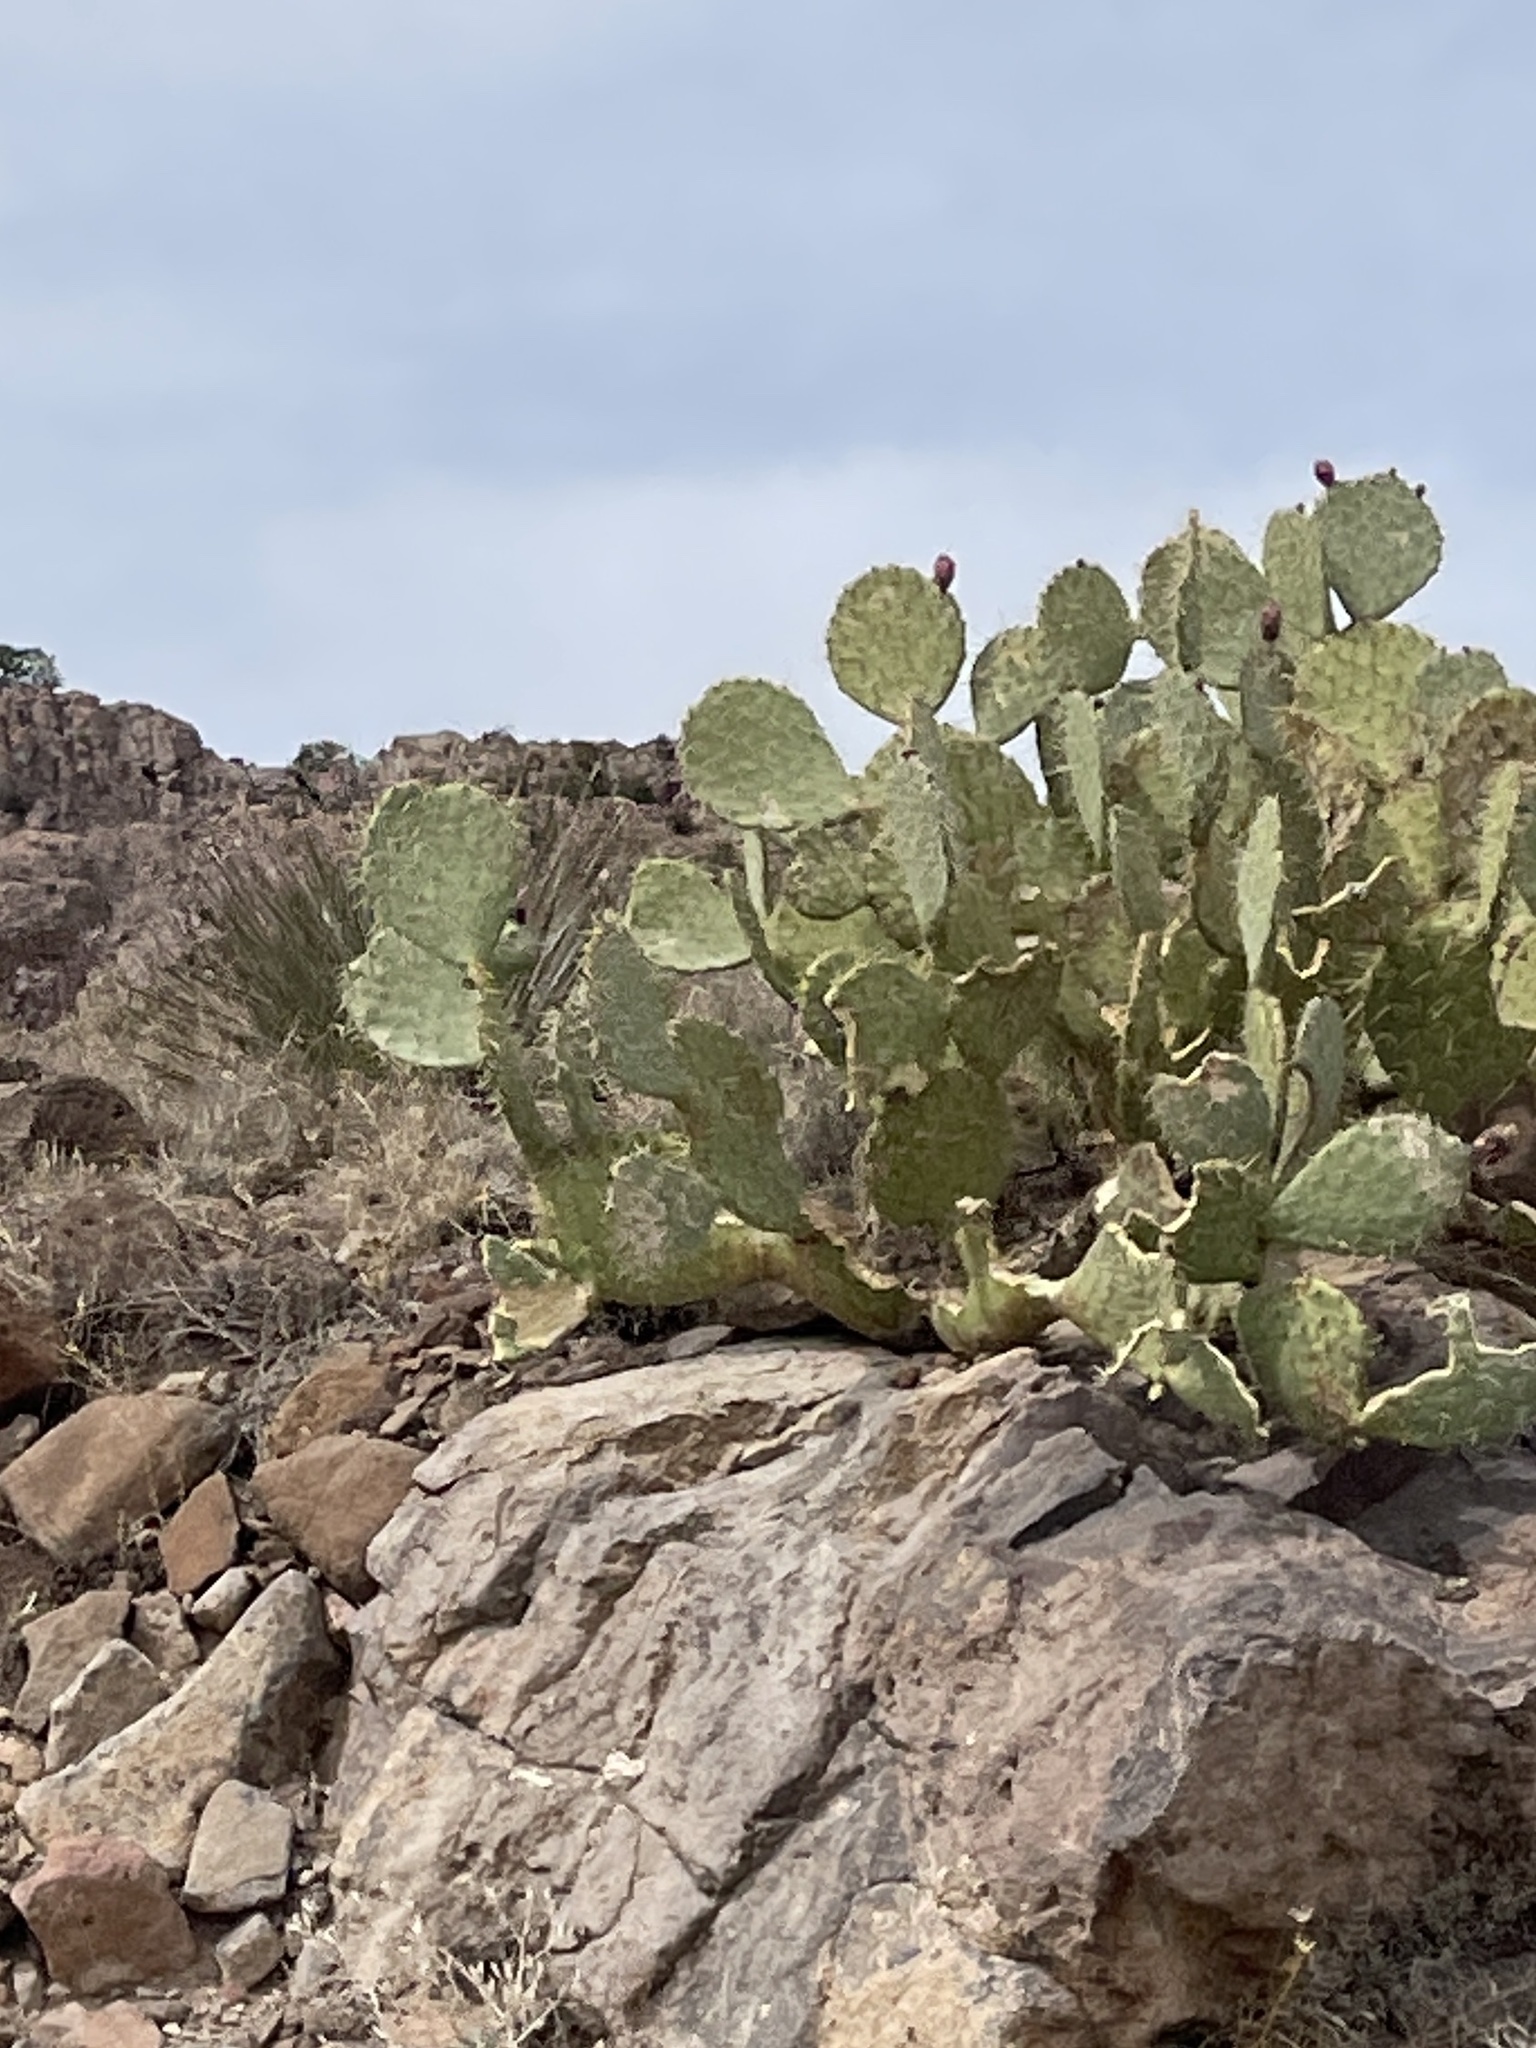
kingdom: Plantae
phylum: Tracheophyta
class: Magnoliopsida
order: Caryophyllales
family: Cactaceae
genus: Opuntia
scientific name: Opuntia engelmannii
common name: Cactus-apple
